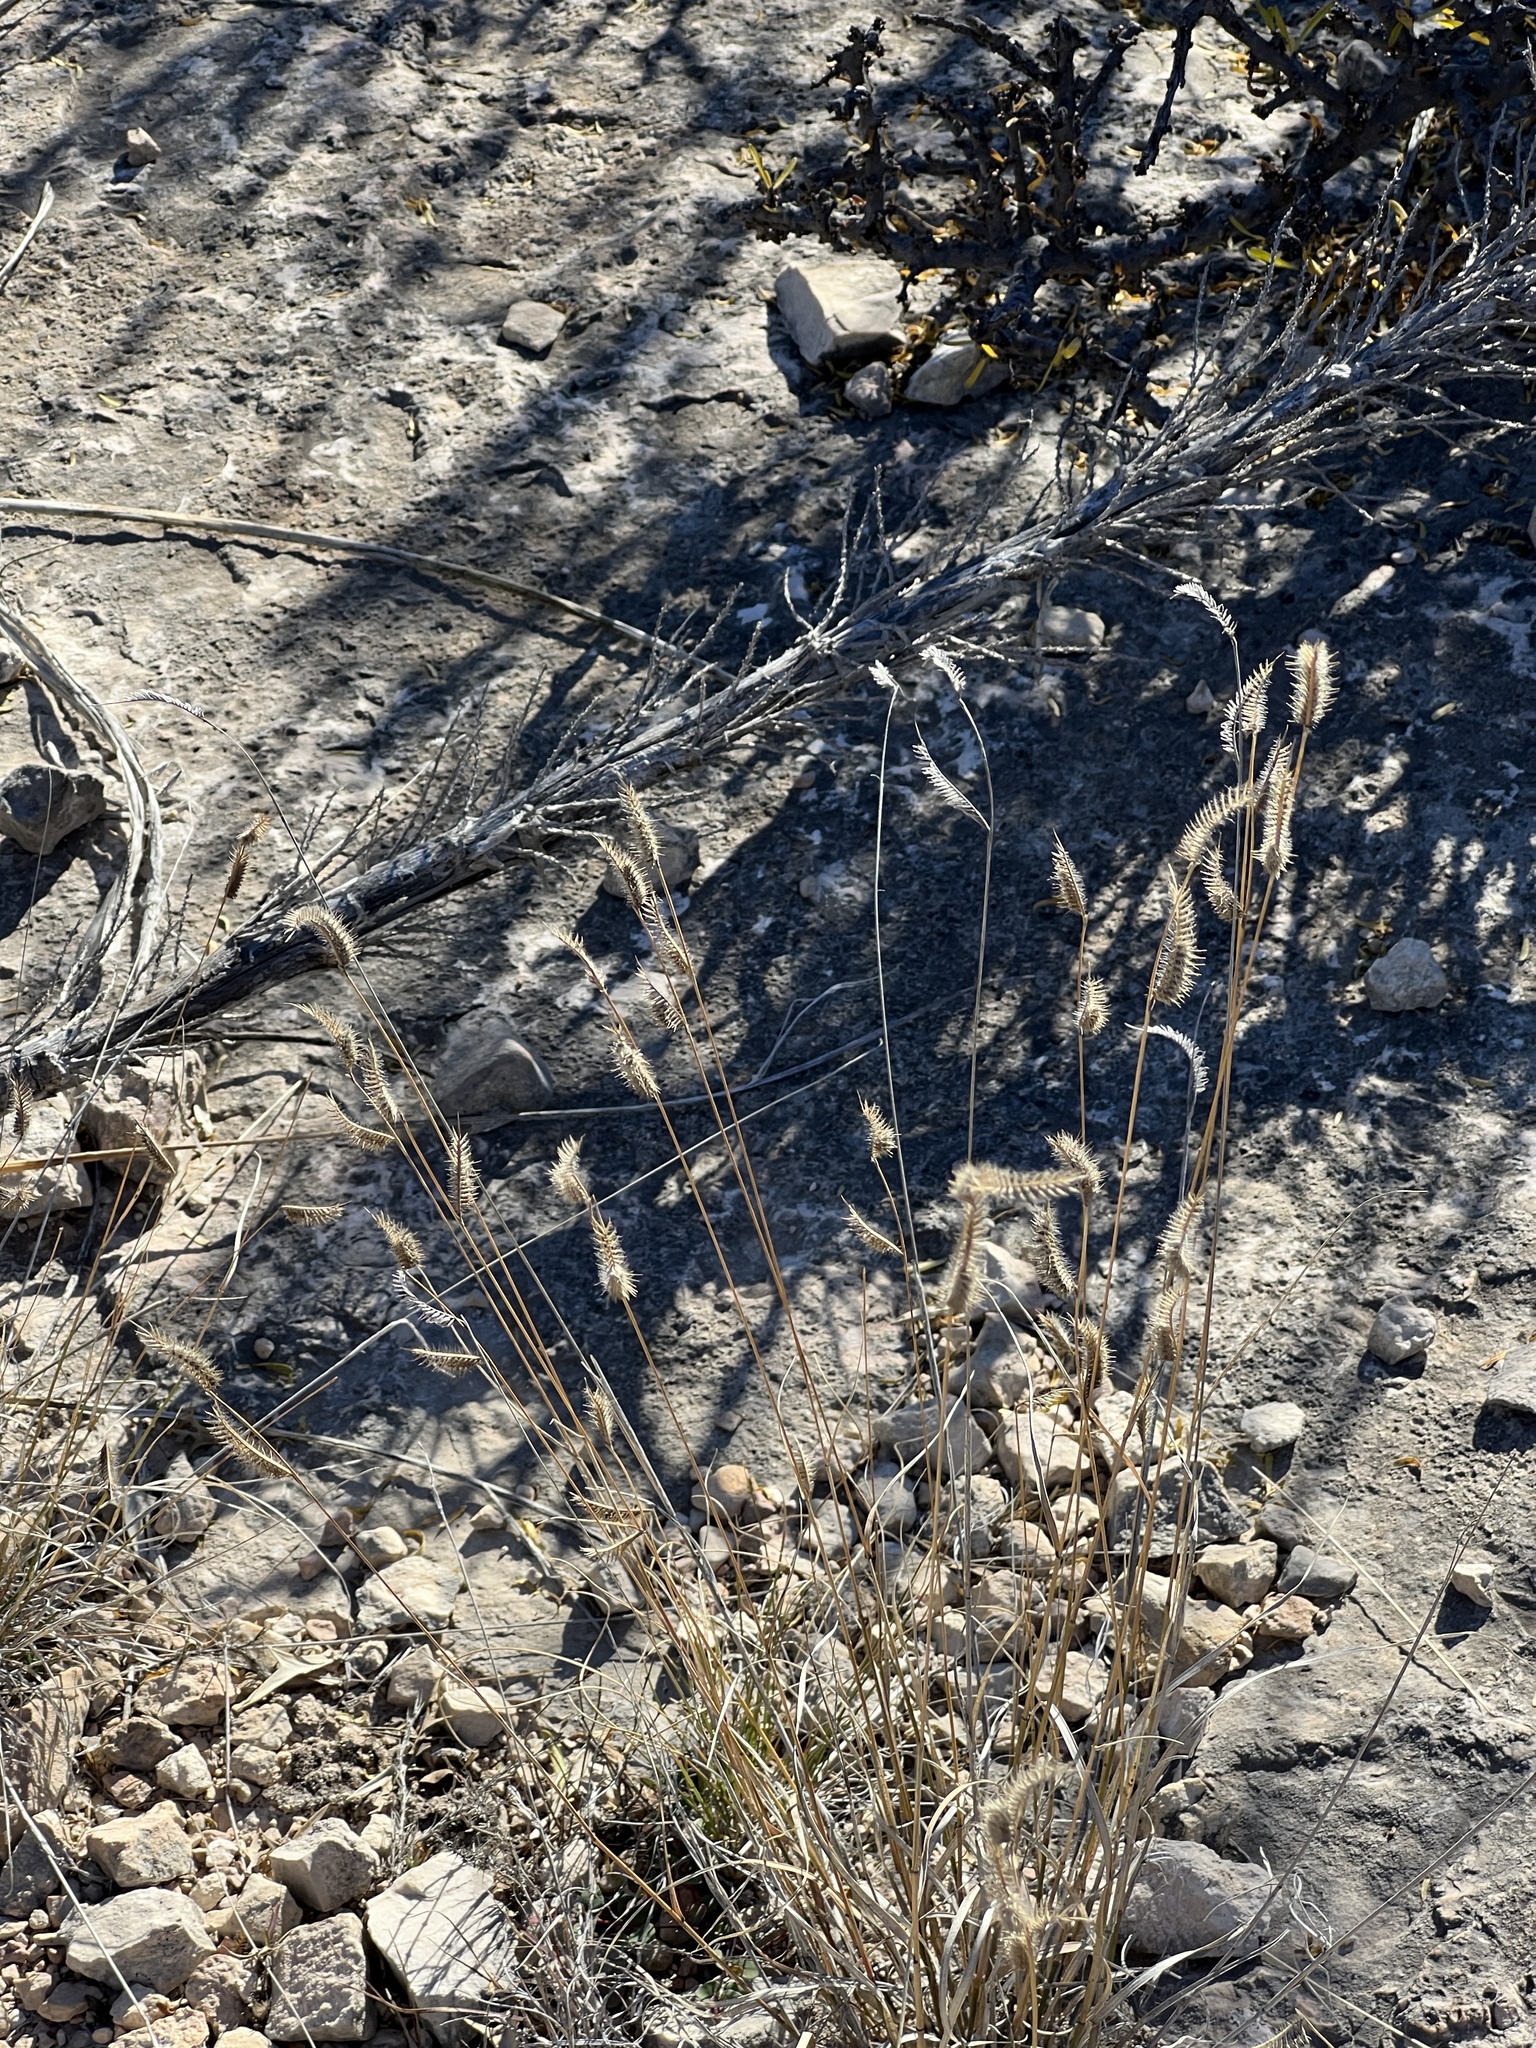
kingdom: Plantae
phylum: Tracheophyta
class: Liliopsida
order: Poales
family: Poaceae
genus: Bouteloua
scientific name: Bouteloua hirsuta
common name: Hairy grama
